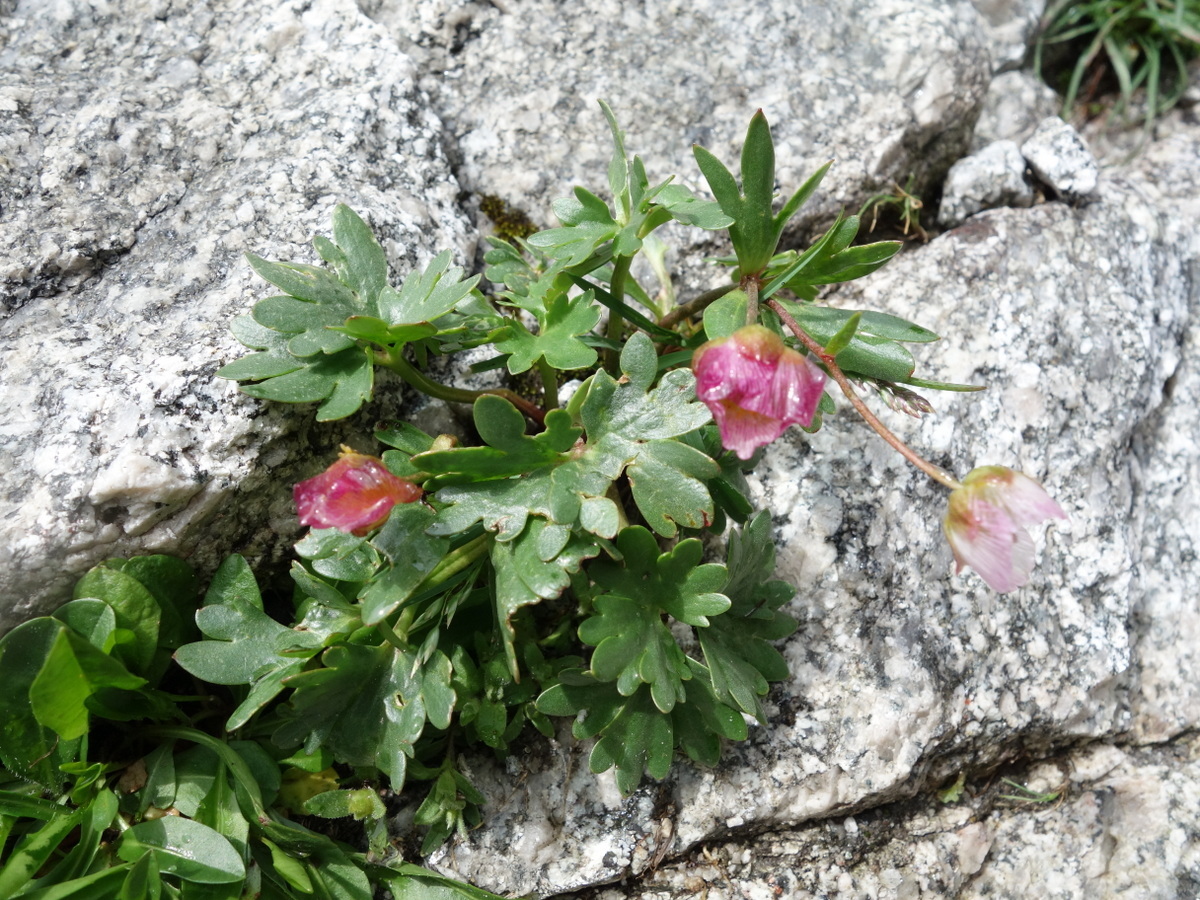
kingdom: Plantae
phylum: Tracheophyta
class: Magnoliopsida
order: Ranunculales
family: Ranunculaceae
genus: Ranunculus
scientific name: Ranunculus glacialis
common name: Glacier buttercup
